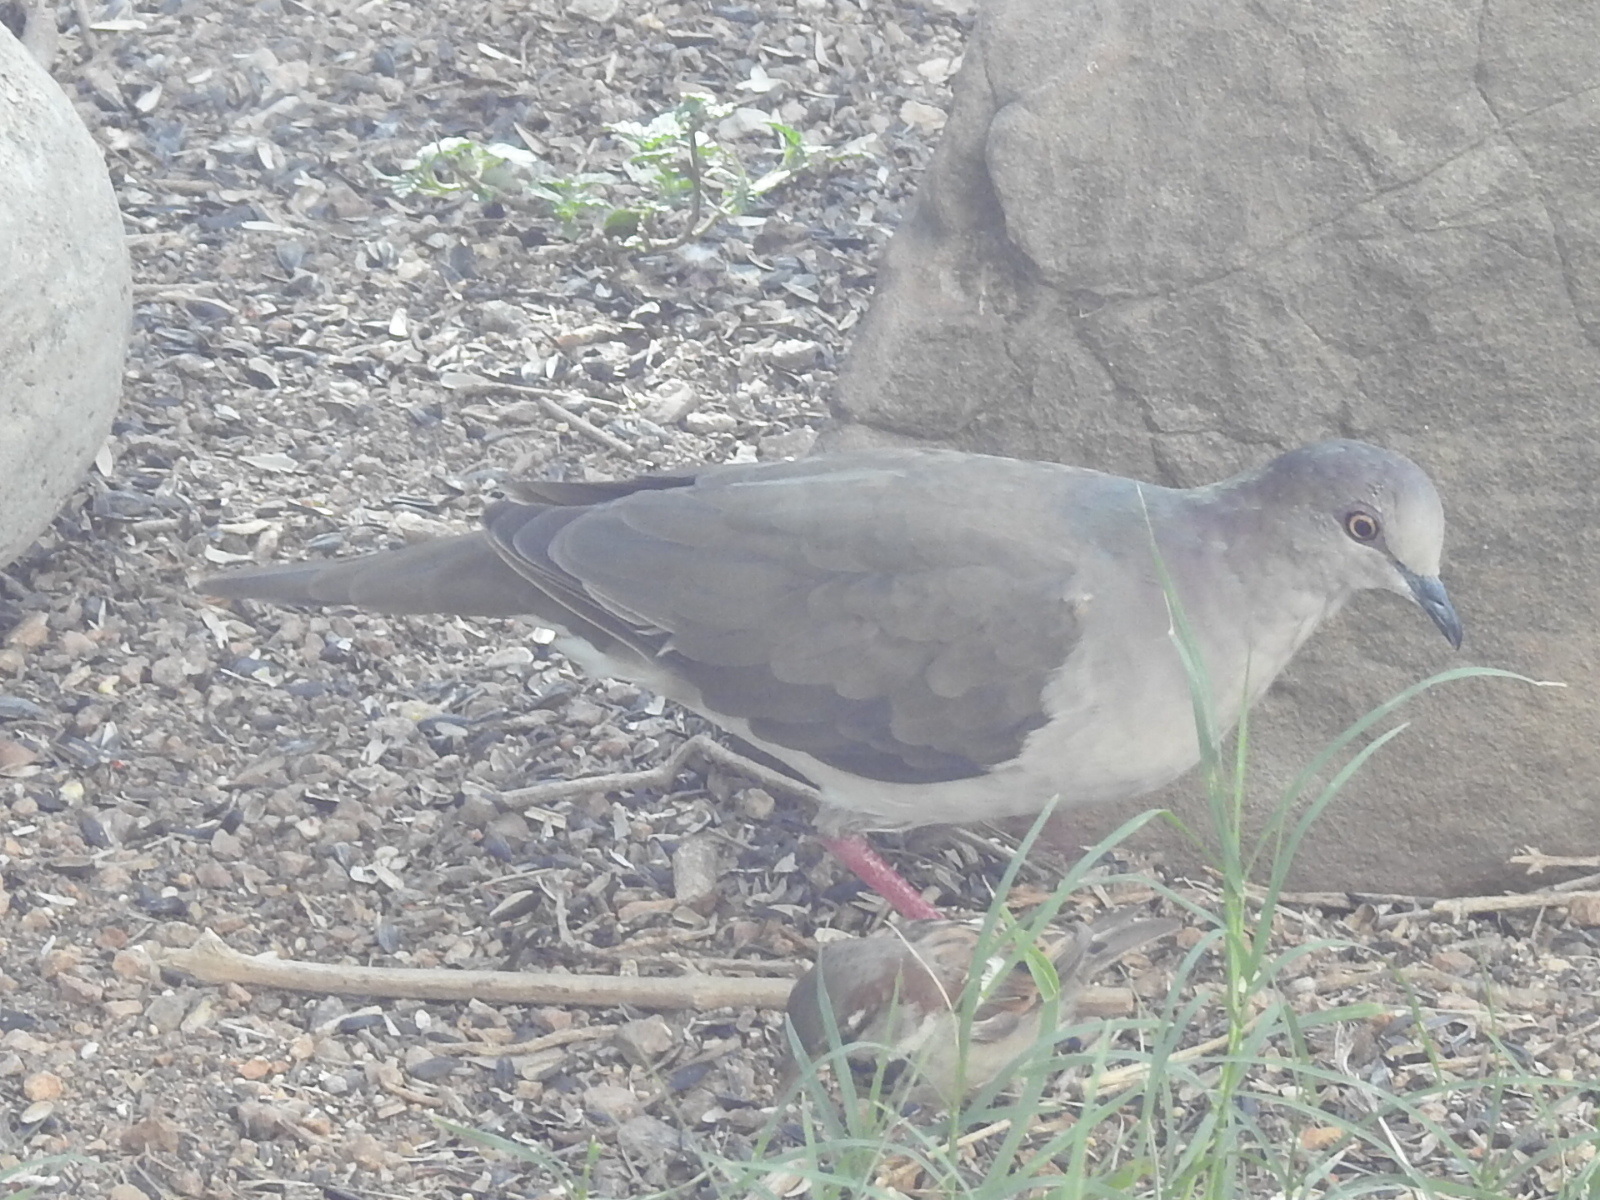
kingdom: Animalia
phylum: Chordata
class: Aves
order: Columbiformes
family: Columbidae
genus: Leptotila
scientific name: Leptotila verreauxi
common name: White-tipped dove
